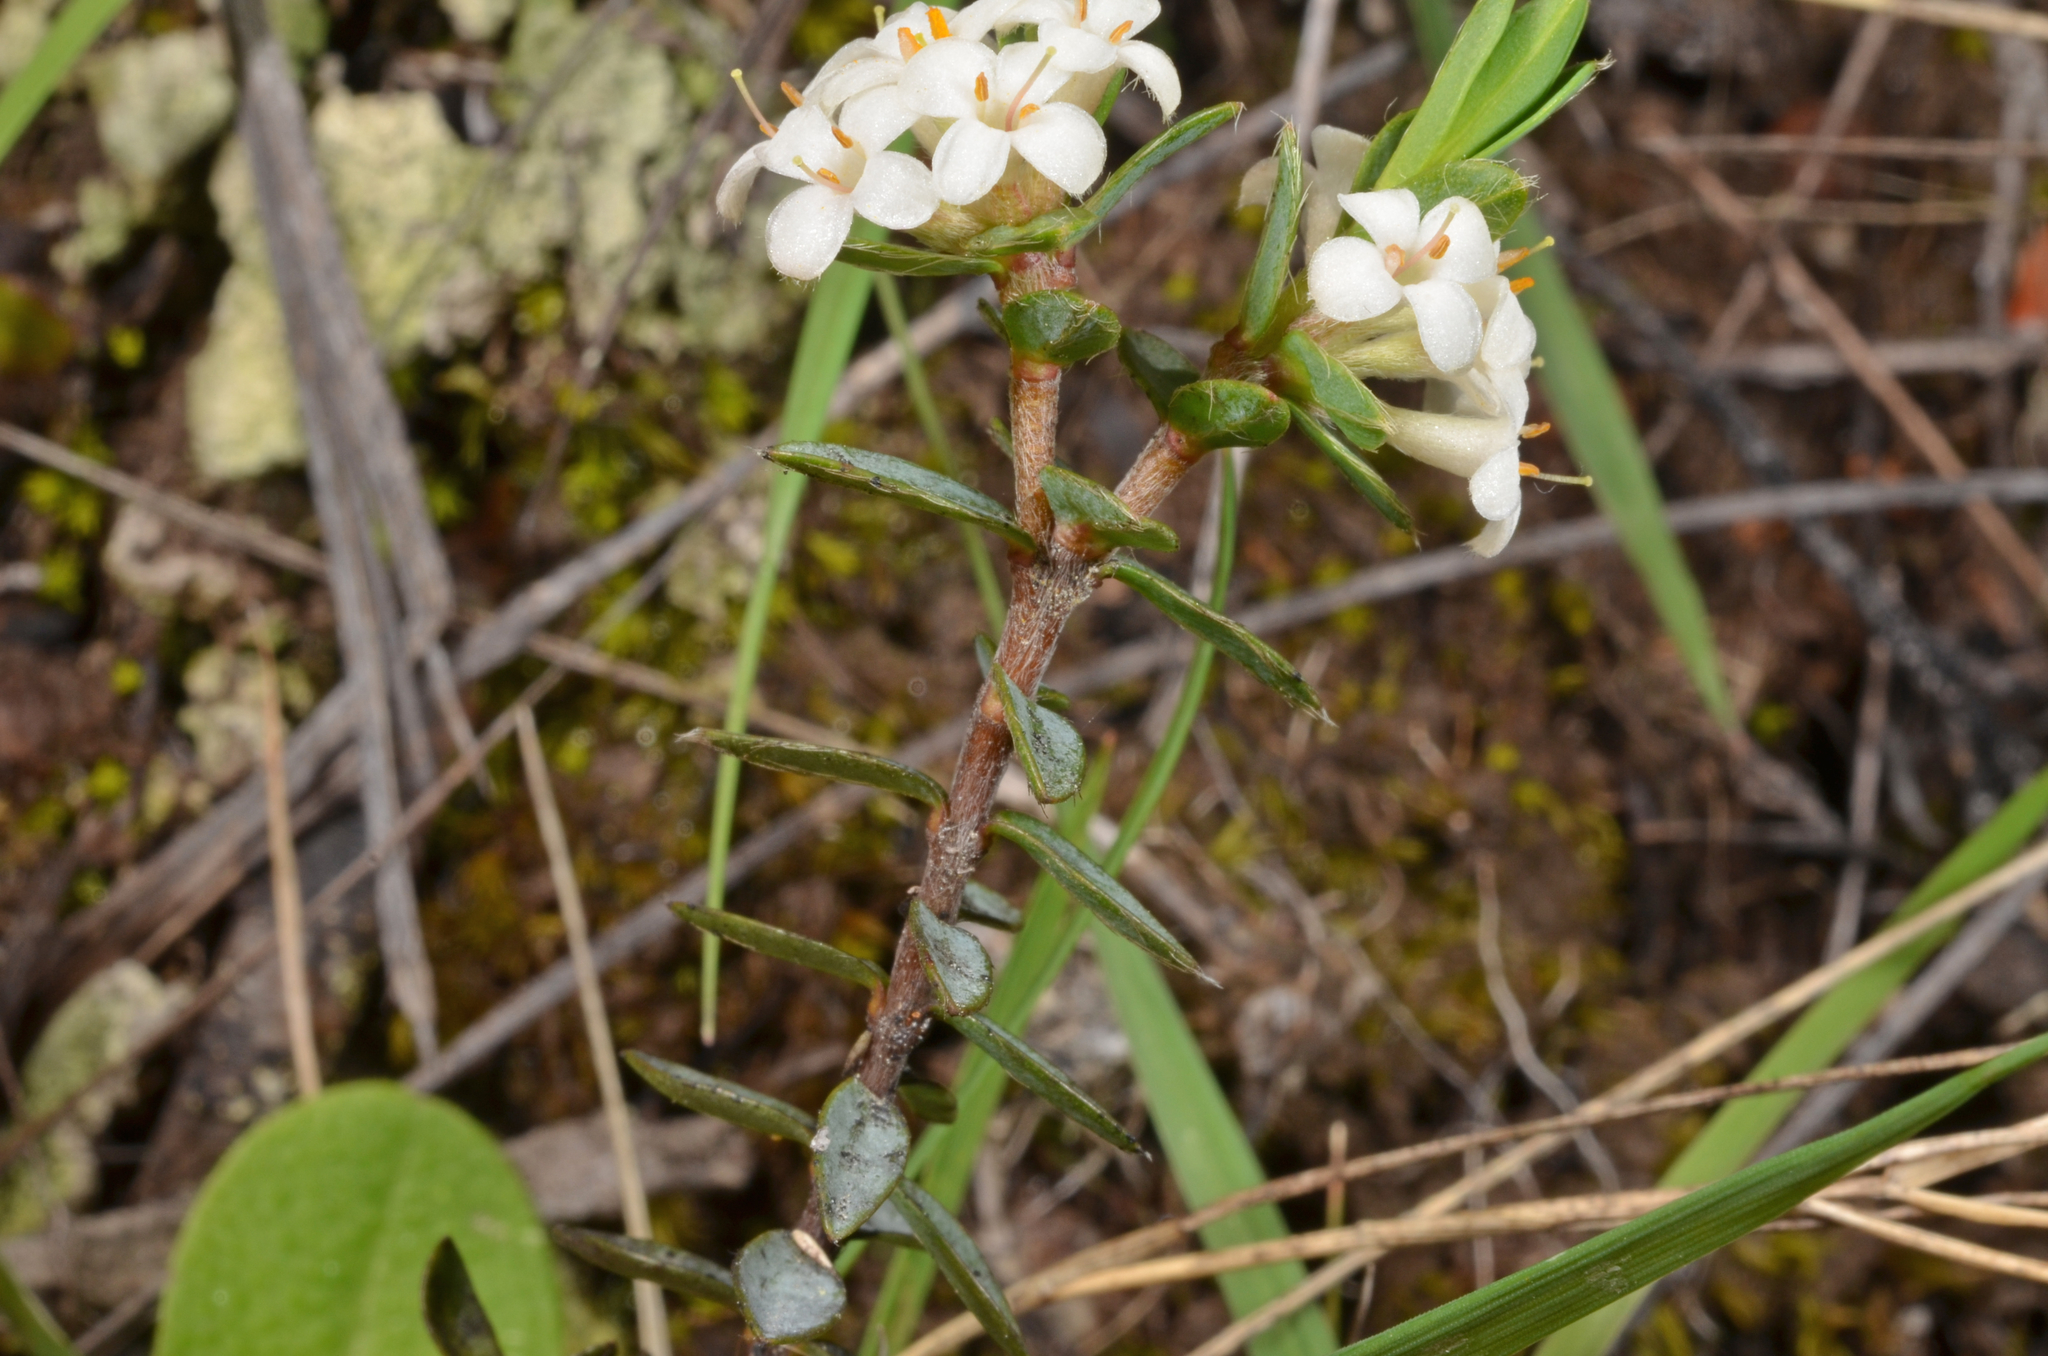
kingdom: Plantae
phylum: Tracheophyta
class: Magnoliopsida
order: Malvales
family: Thymelaeaceae
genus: Pimelea
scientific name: Pimelea oreophila
